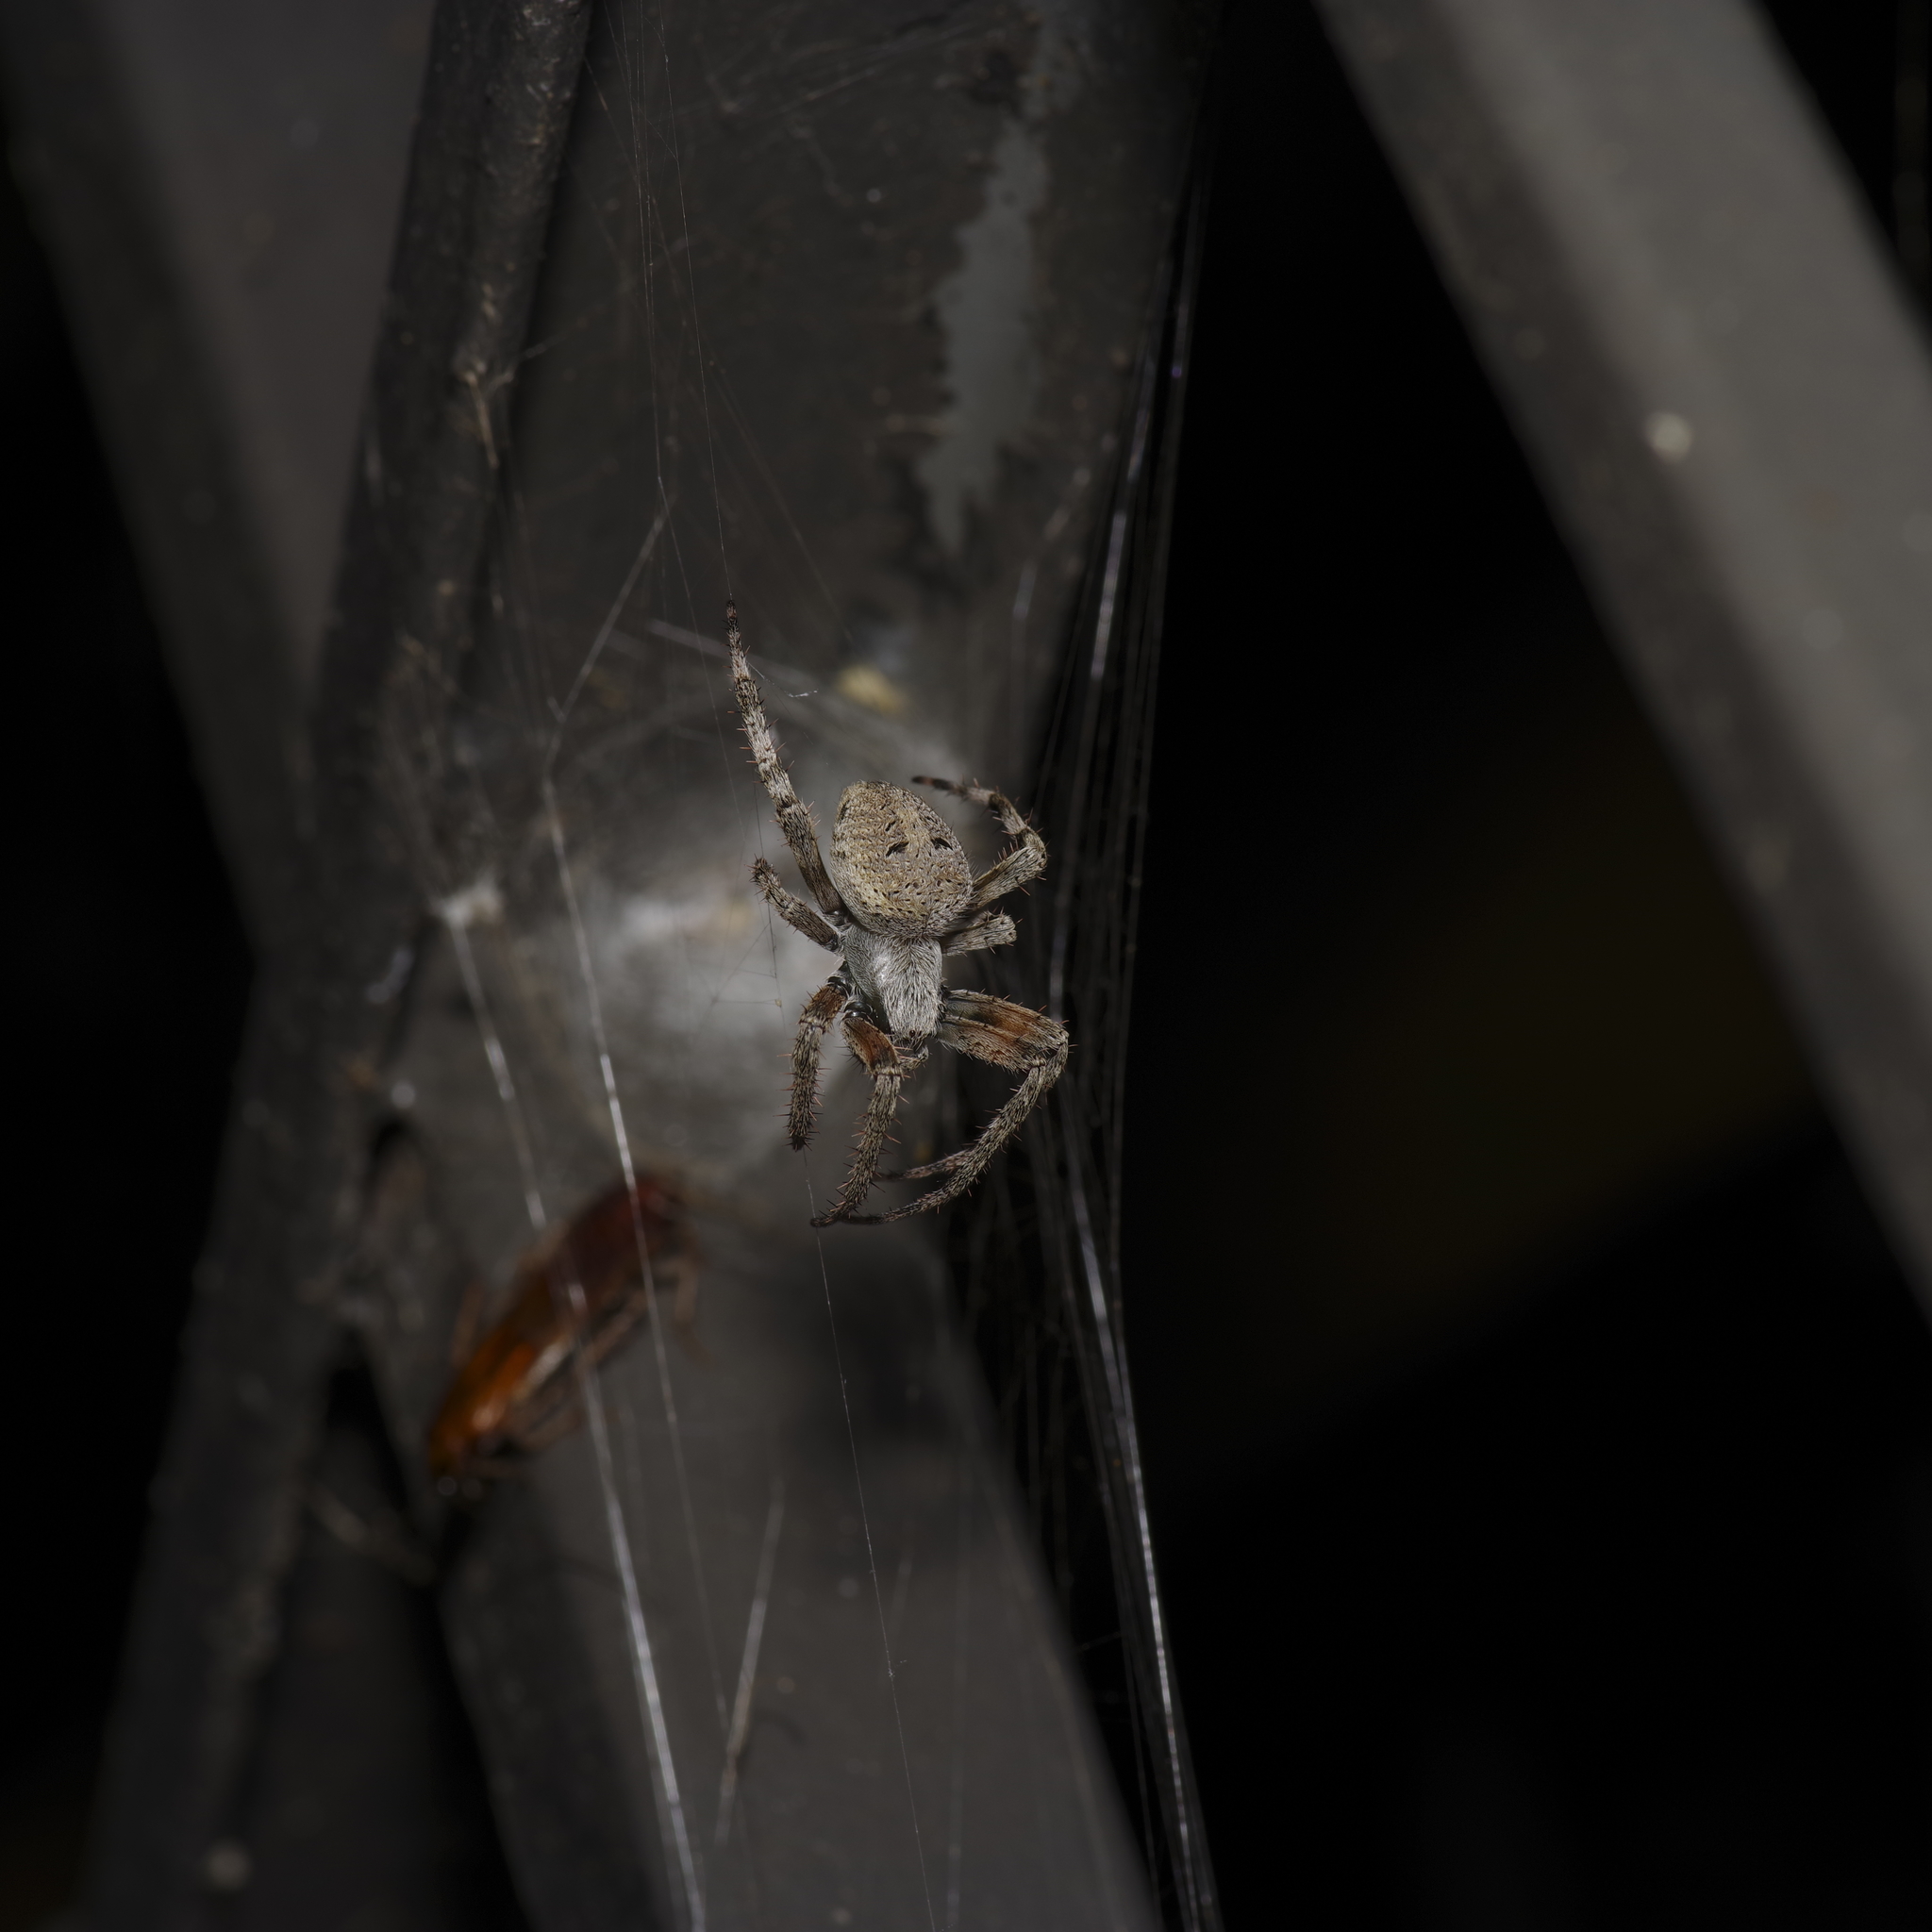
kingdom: Animalia
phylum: Arthropoda
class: Arachnida
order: Araneae
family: Araneidae
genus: Neoscona
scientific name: Neoscona crucifera
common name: Spotted orbweaver
